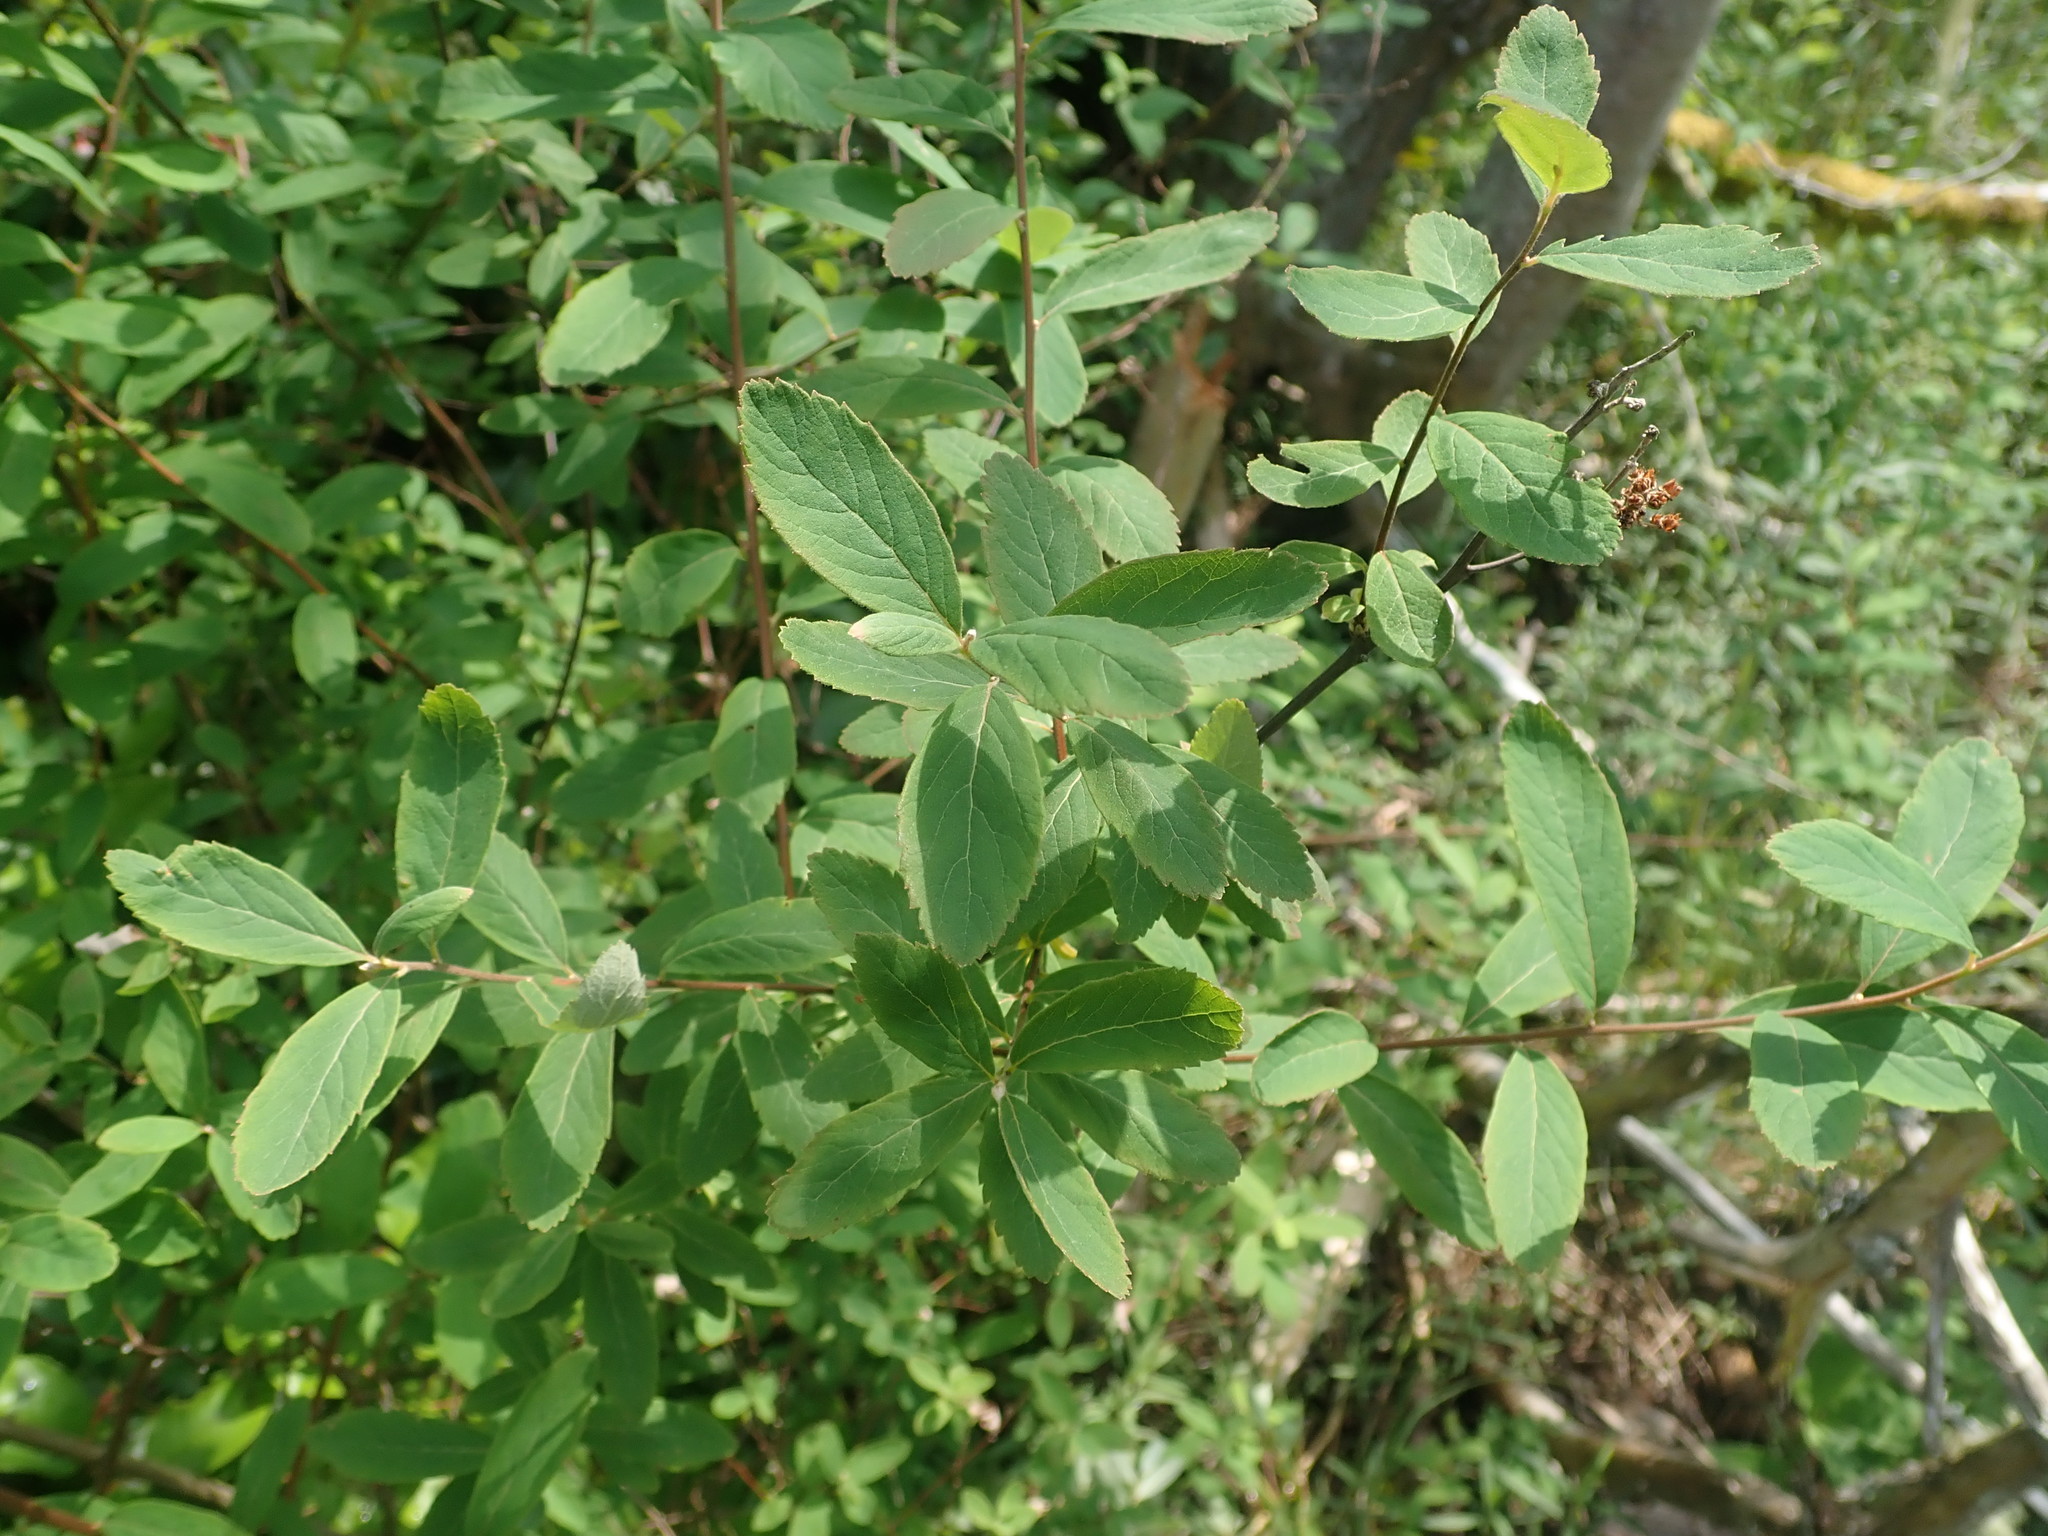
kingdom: Plantae
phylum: Tracheophyta
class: Magnoliopsida
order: Rosales
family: Rosaceae
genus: Spiraea
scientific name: Spiraea douglasii
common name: Steeplebush
